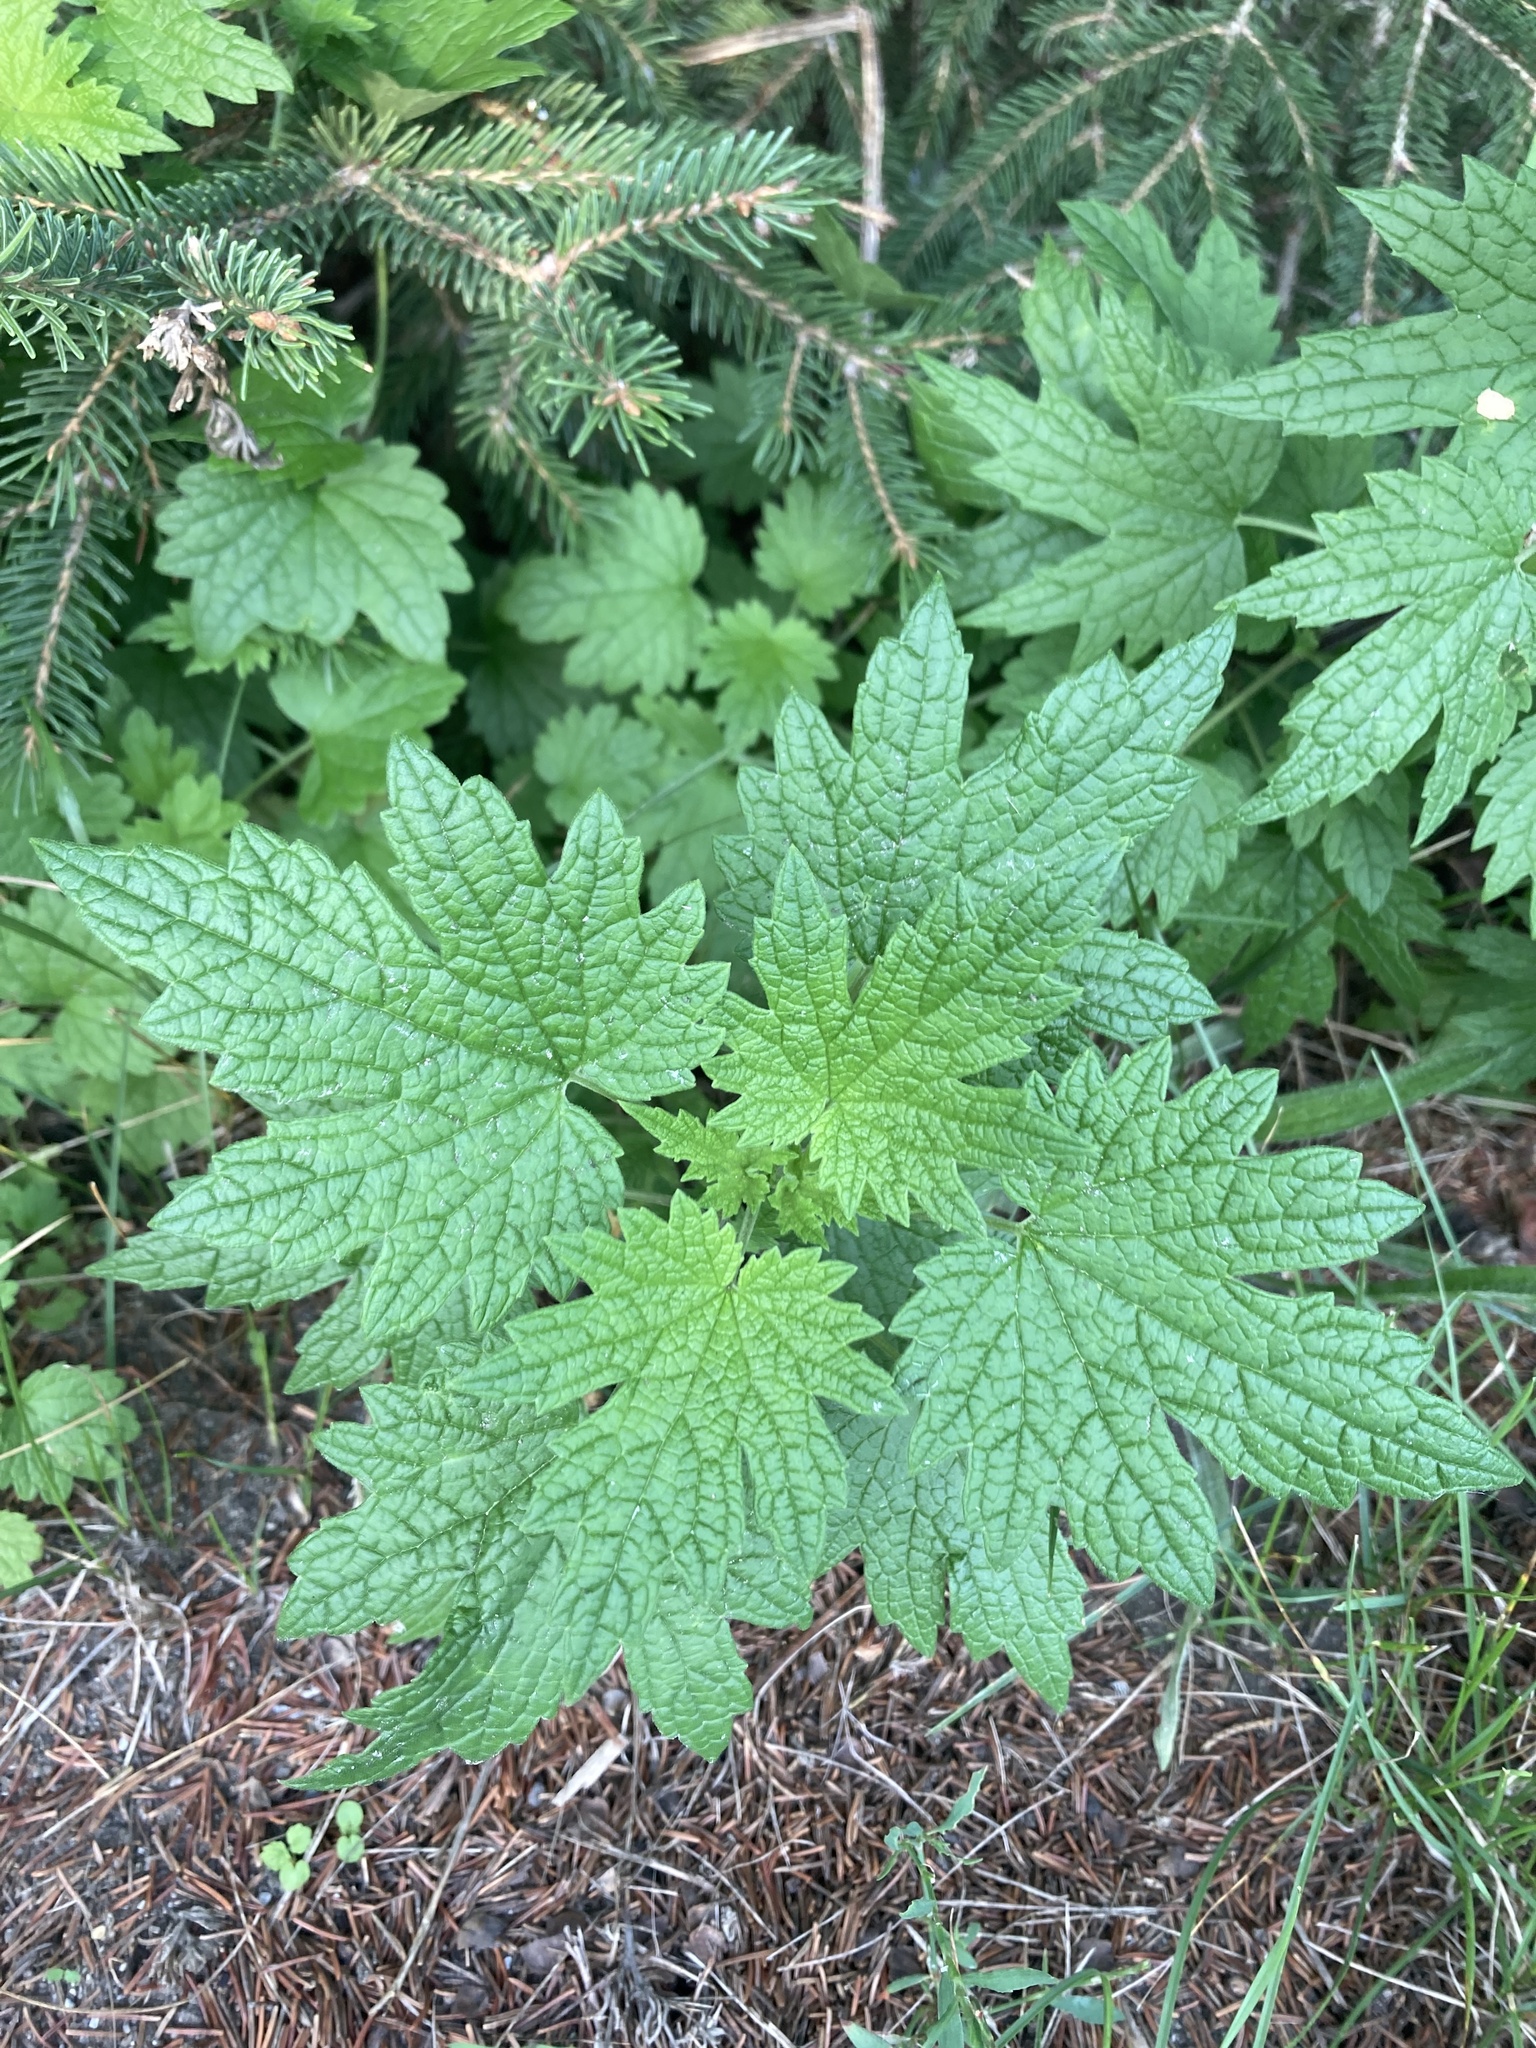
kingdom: Plantae
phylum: Tracheophyta
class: Magnoliopsida
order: Lamiales
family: Lamiaceae
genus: Leonurus
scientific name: Leonurus cardiaca
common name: Motherwort
